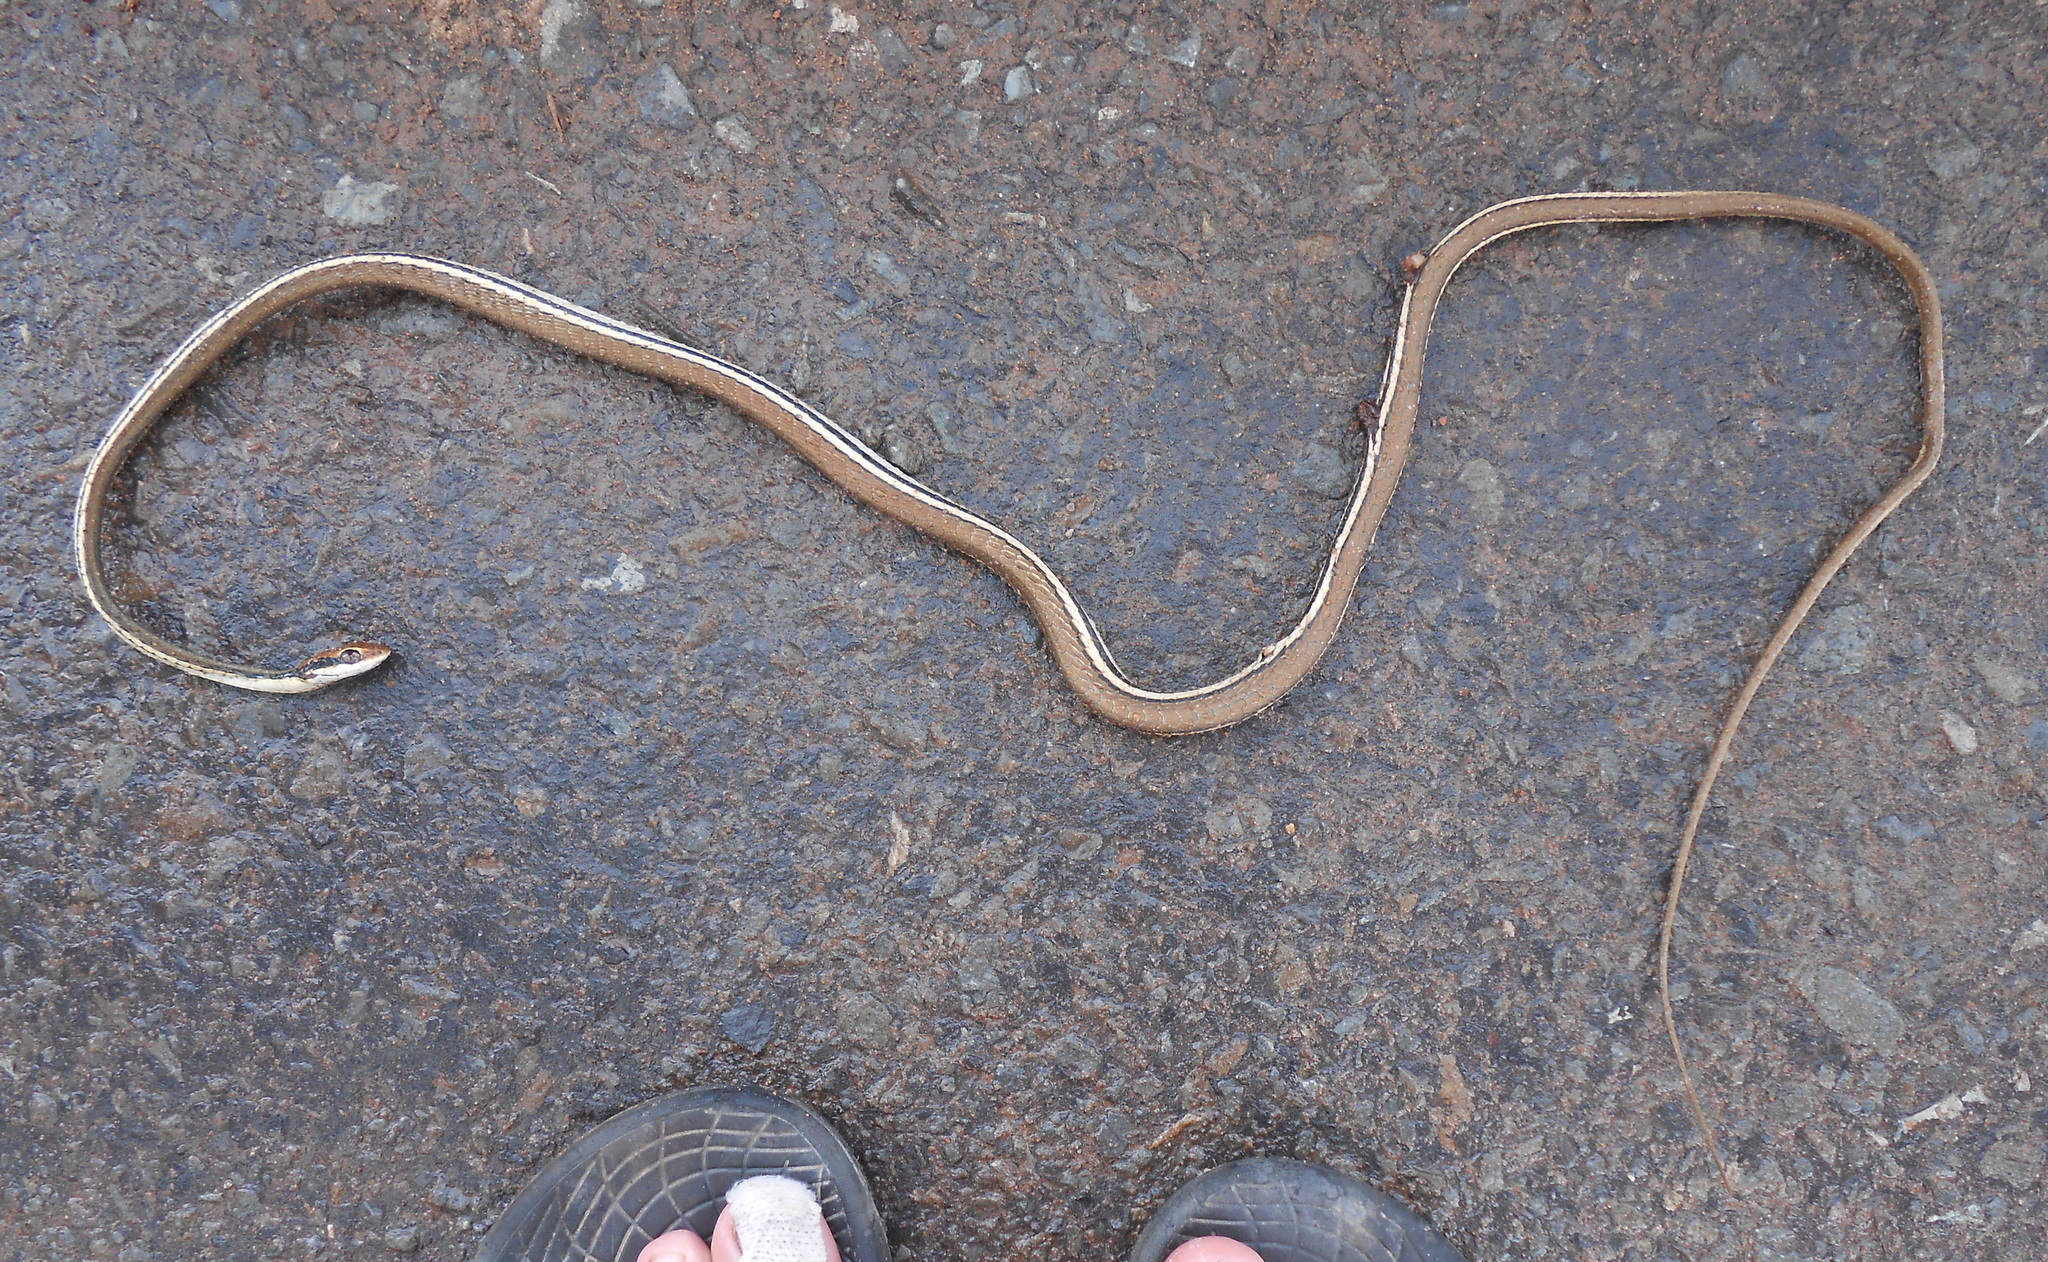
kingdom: Animalia
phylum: Chordata
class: Squamata
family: Colubridae
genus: Dendrelaphis
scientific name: Dendrelaphis pictus
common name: Indonesian bronze-back
